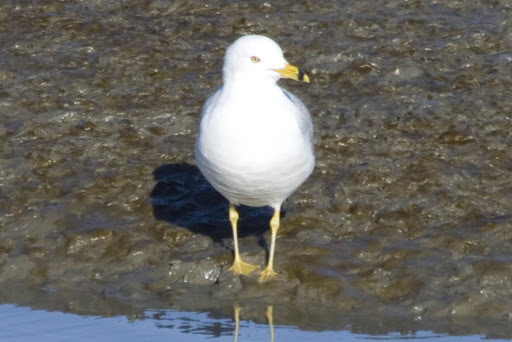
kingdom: Animalia
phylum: Chordata
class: Aves
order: Charadriiformes
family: Laridae
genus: Larus
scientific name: Larus delawarensis
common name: Ring-billed gull
